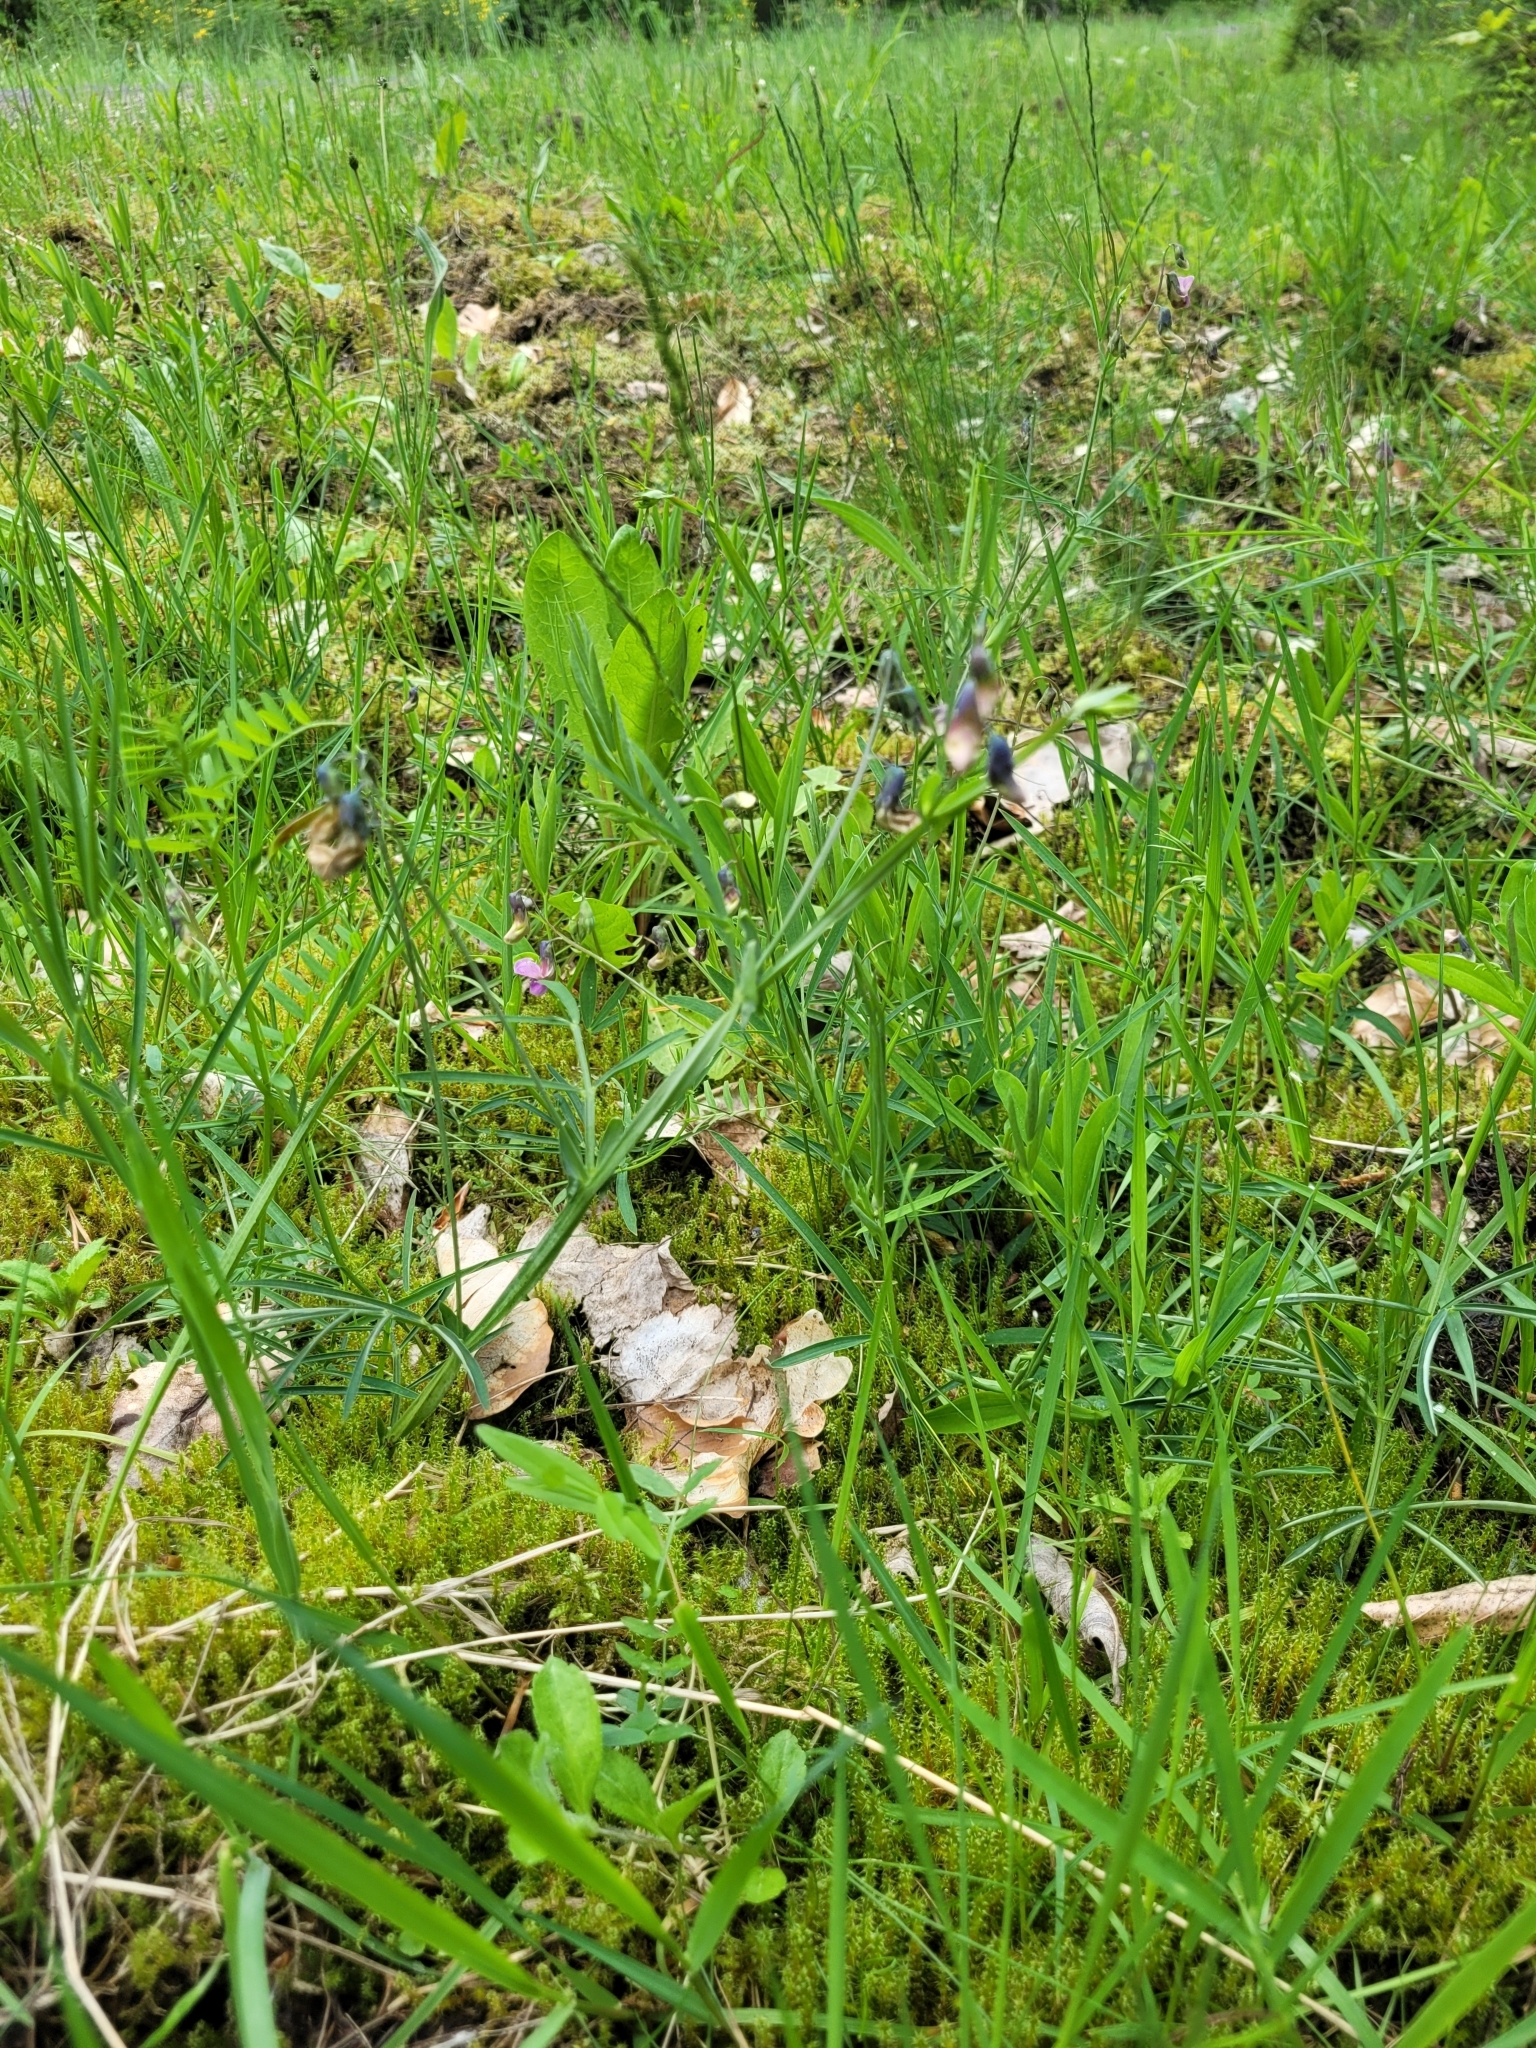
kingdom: Plantae
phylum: Tracheophyta
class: Magnoliopsida
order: Fabales
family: Fabaceae
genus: Lathyrus
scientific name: Lathyrus linifolius
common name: Bitter-vetch
